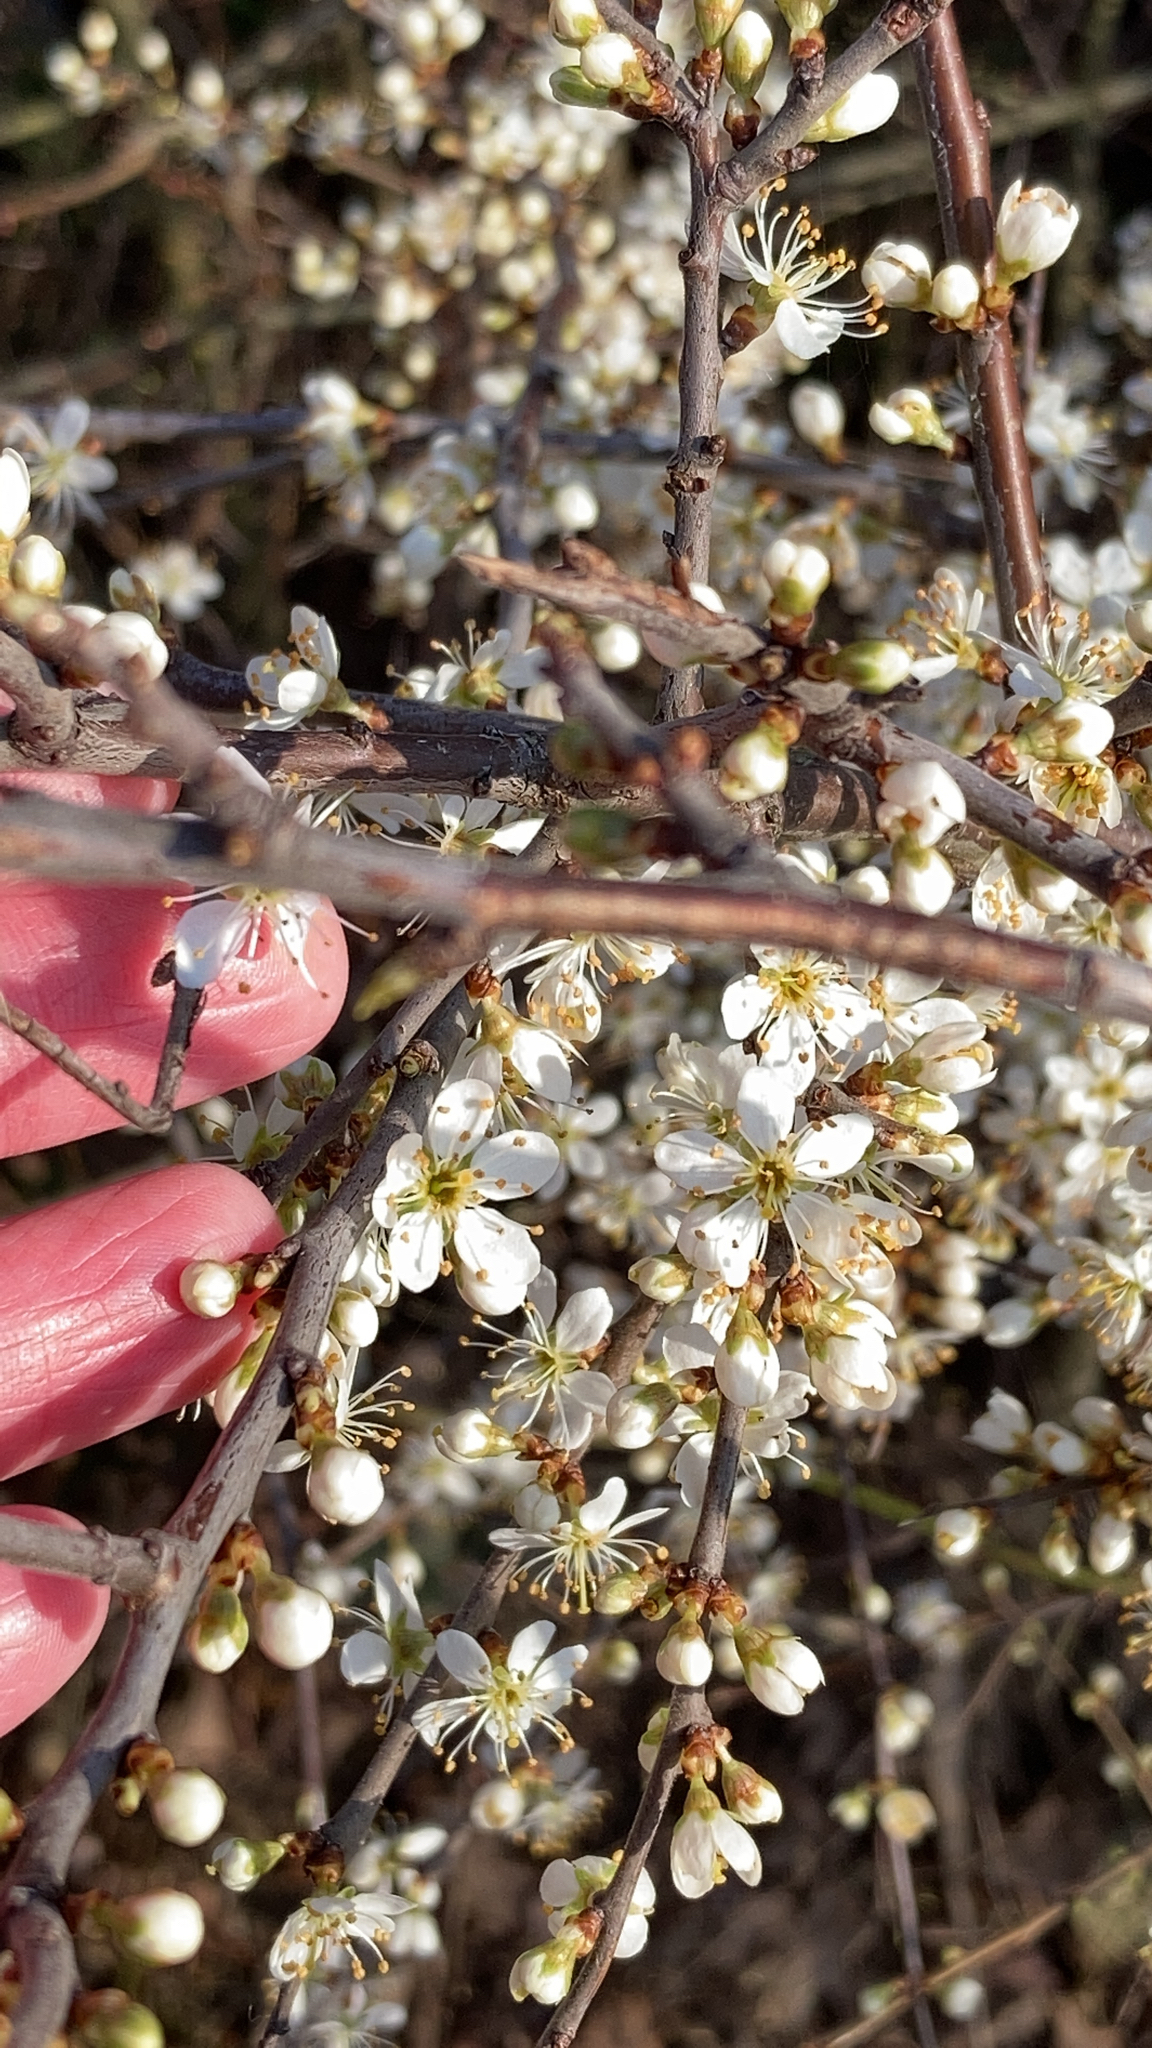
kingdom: Plantae
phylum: Tracheophyta
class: Magnoliopsida
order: Rosales
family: Rosaceae
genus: Prunus
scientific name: Prunus spinosa
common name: Blackthorn
